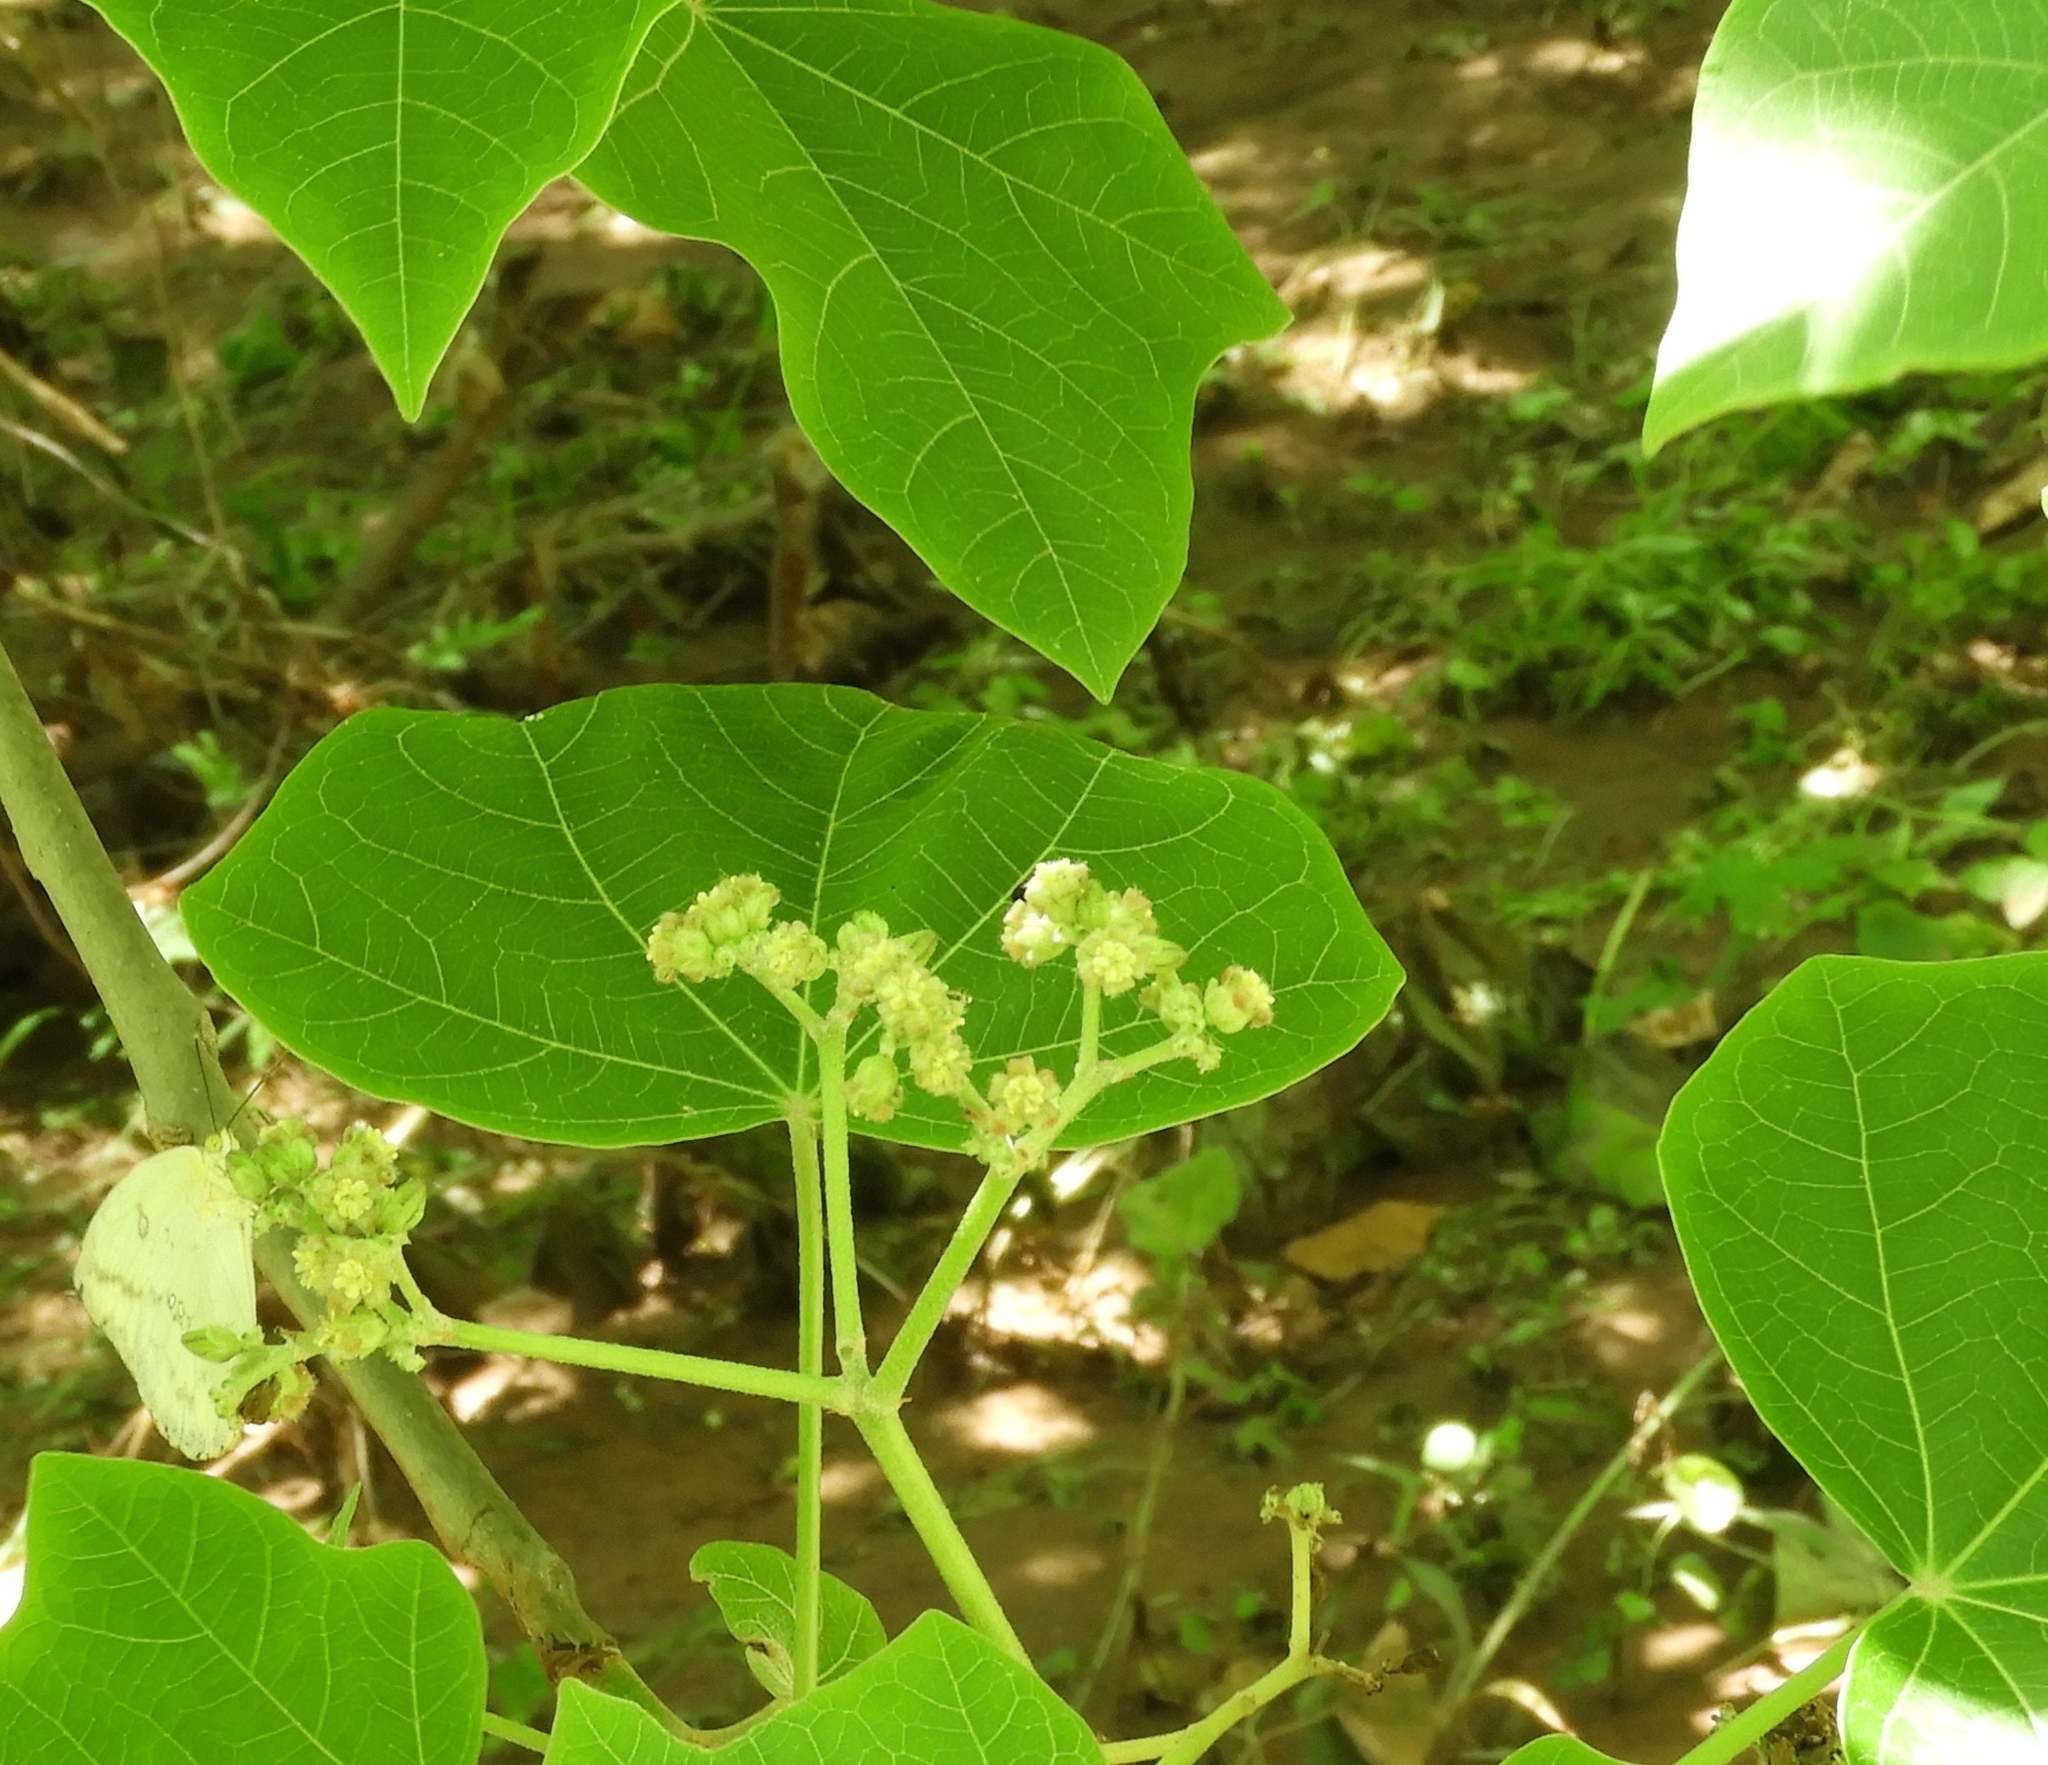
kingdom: Plantae
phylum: Tracheophyta
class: Magnoliopsida
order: Malpighiales
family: Euphorbiaceae
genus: Jatropha
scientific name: Jatropha curcas
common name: Barbados nut
